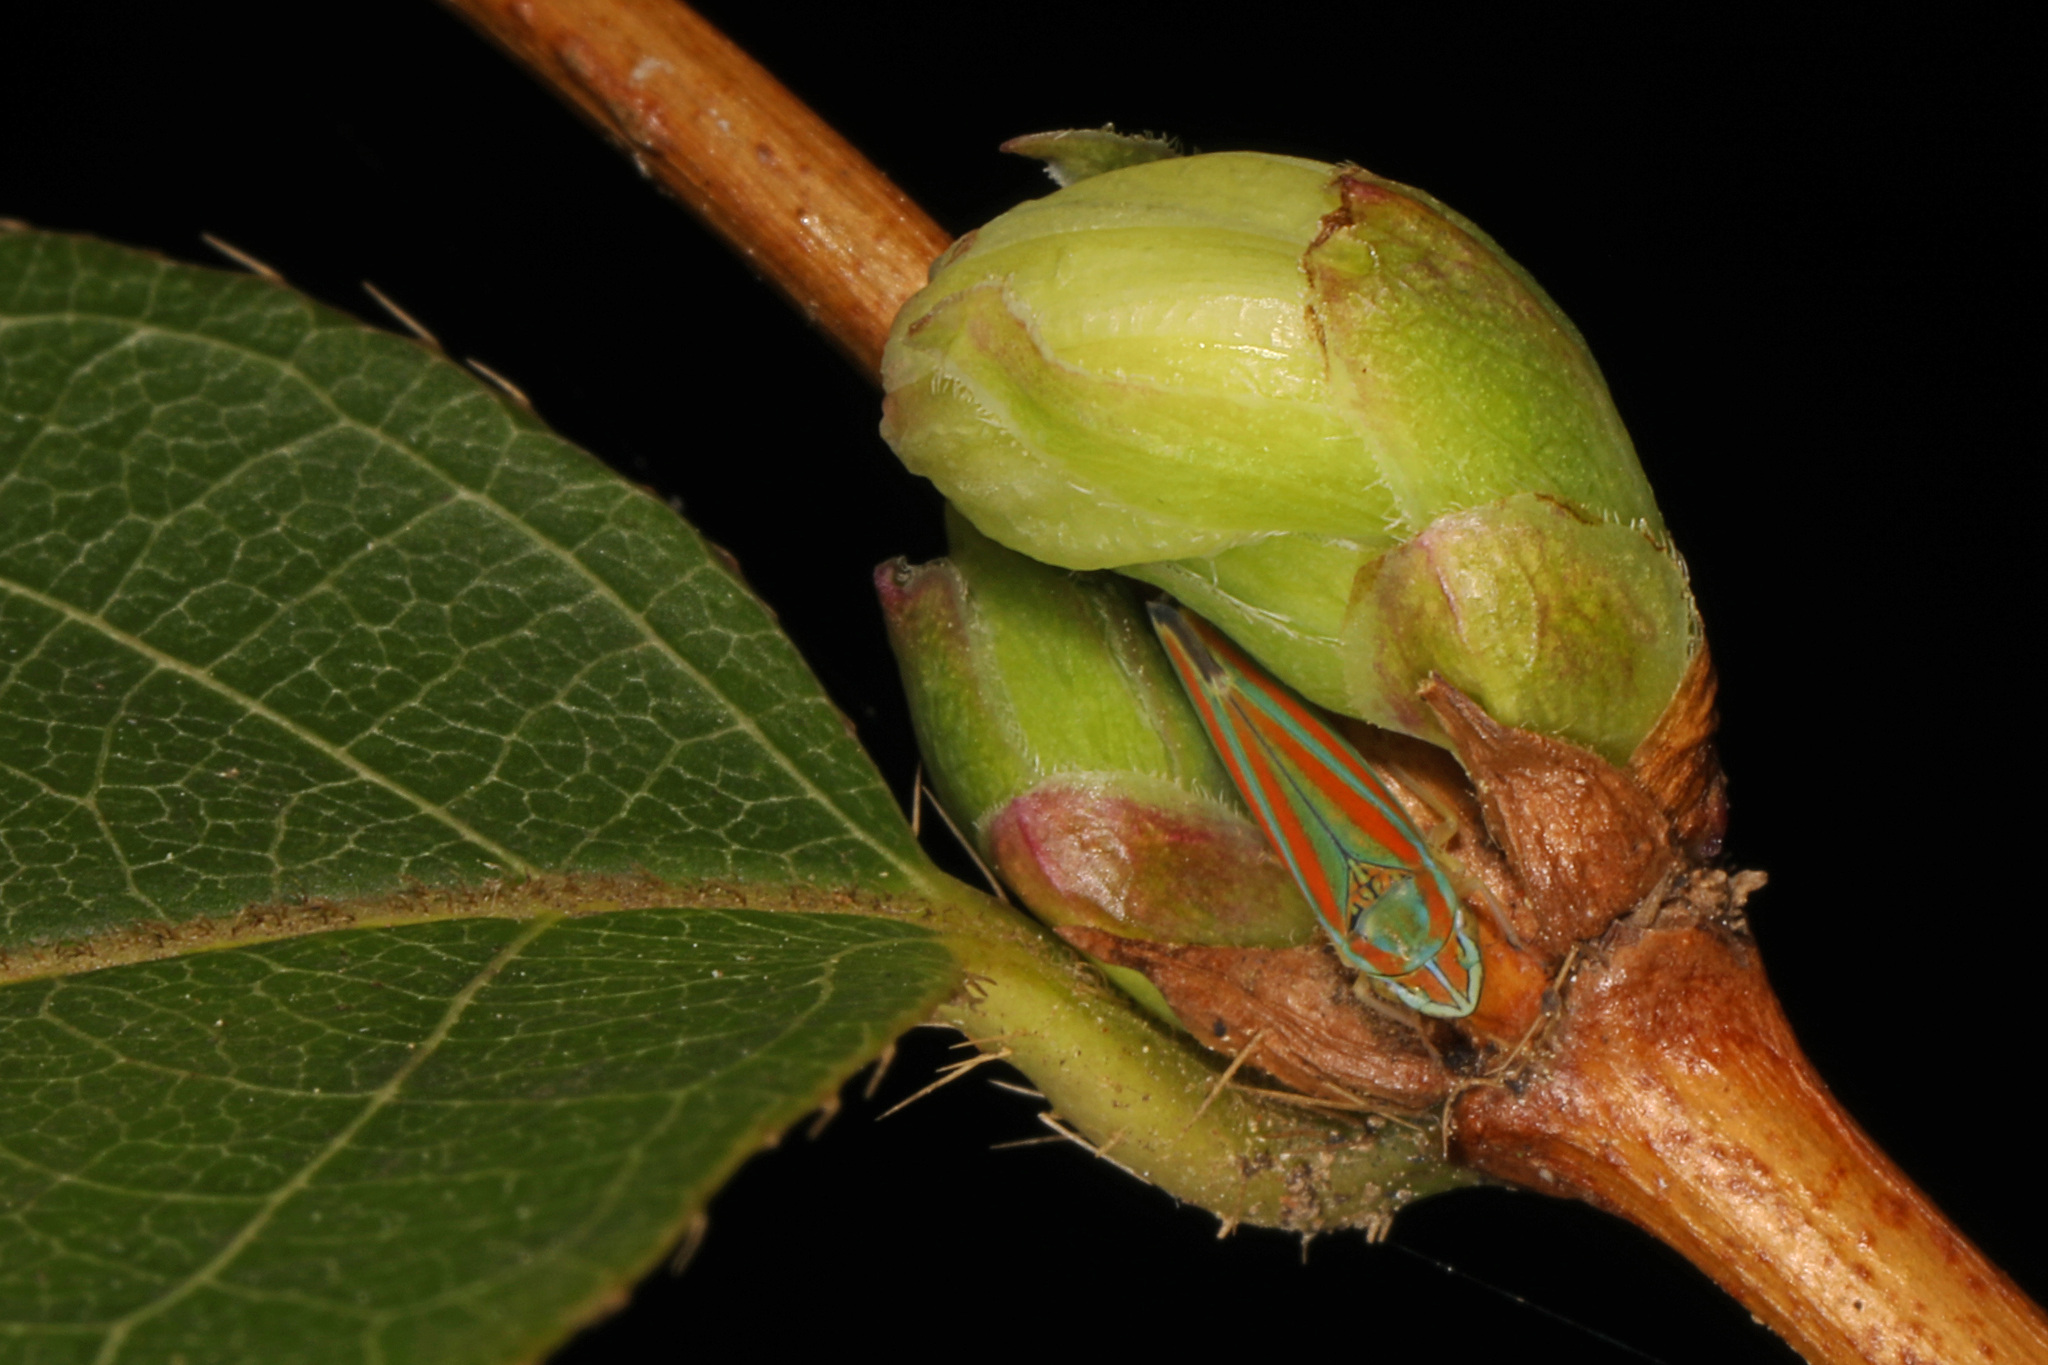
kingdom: Animalia
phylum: Arthropoda
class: Insecta
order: Hemiptera
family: Cicadellidae
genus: Graphocephala
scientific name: Graphocephala versuta
